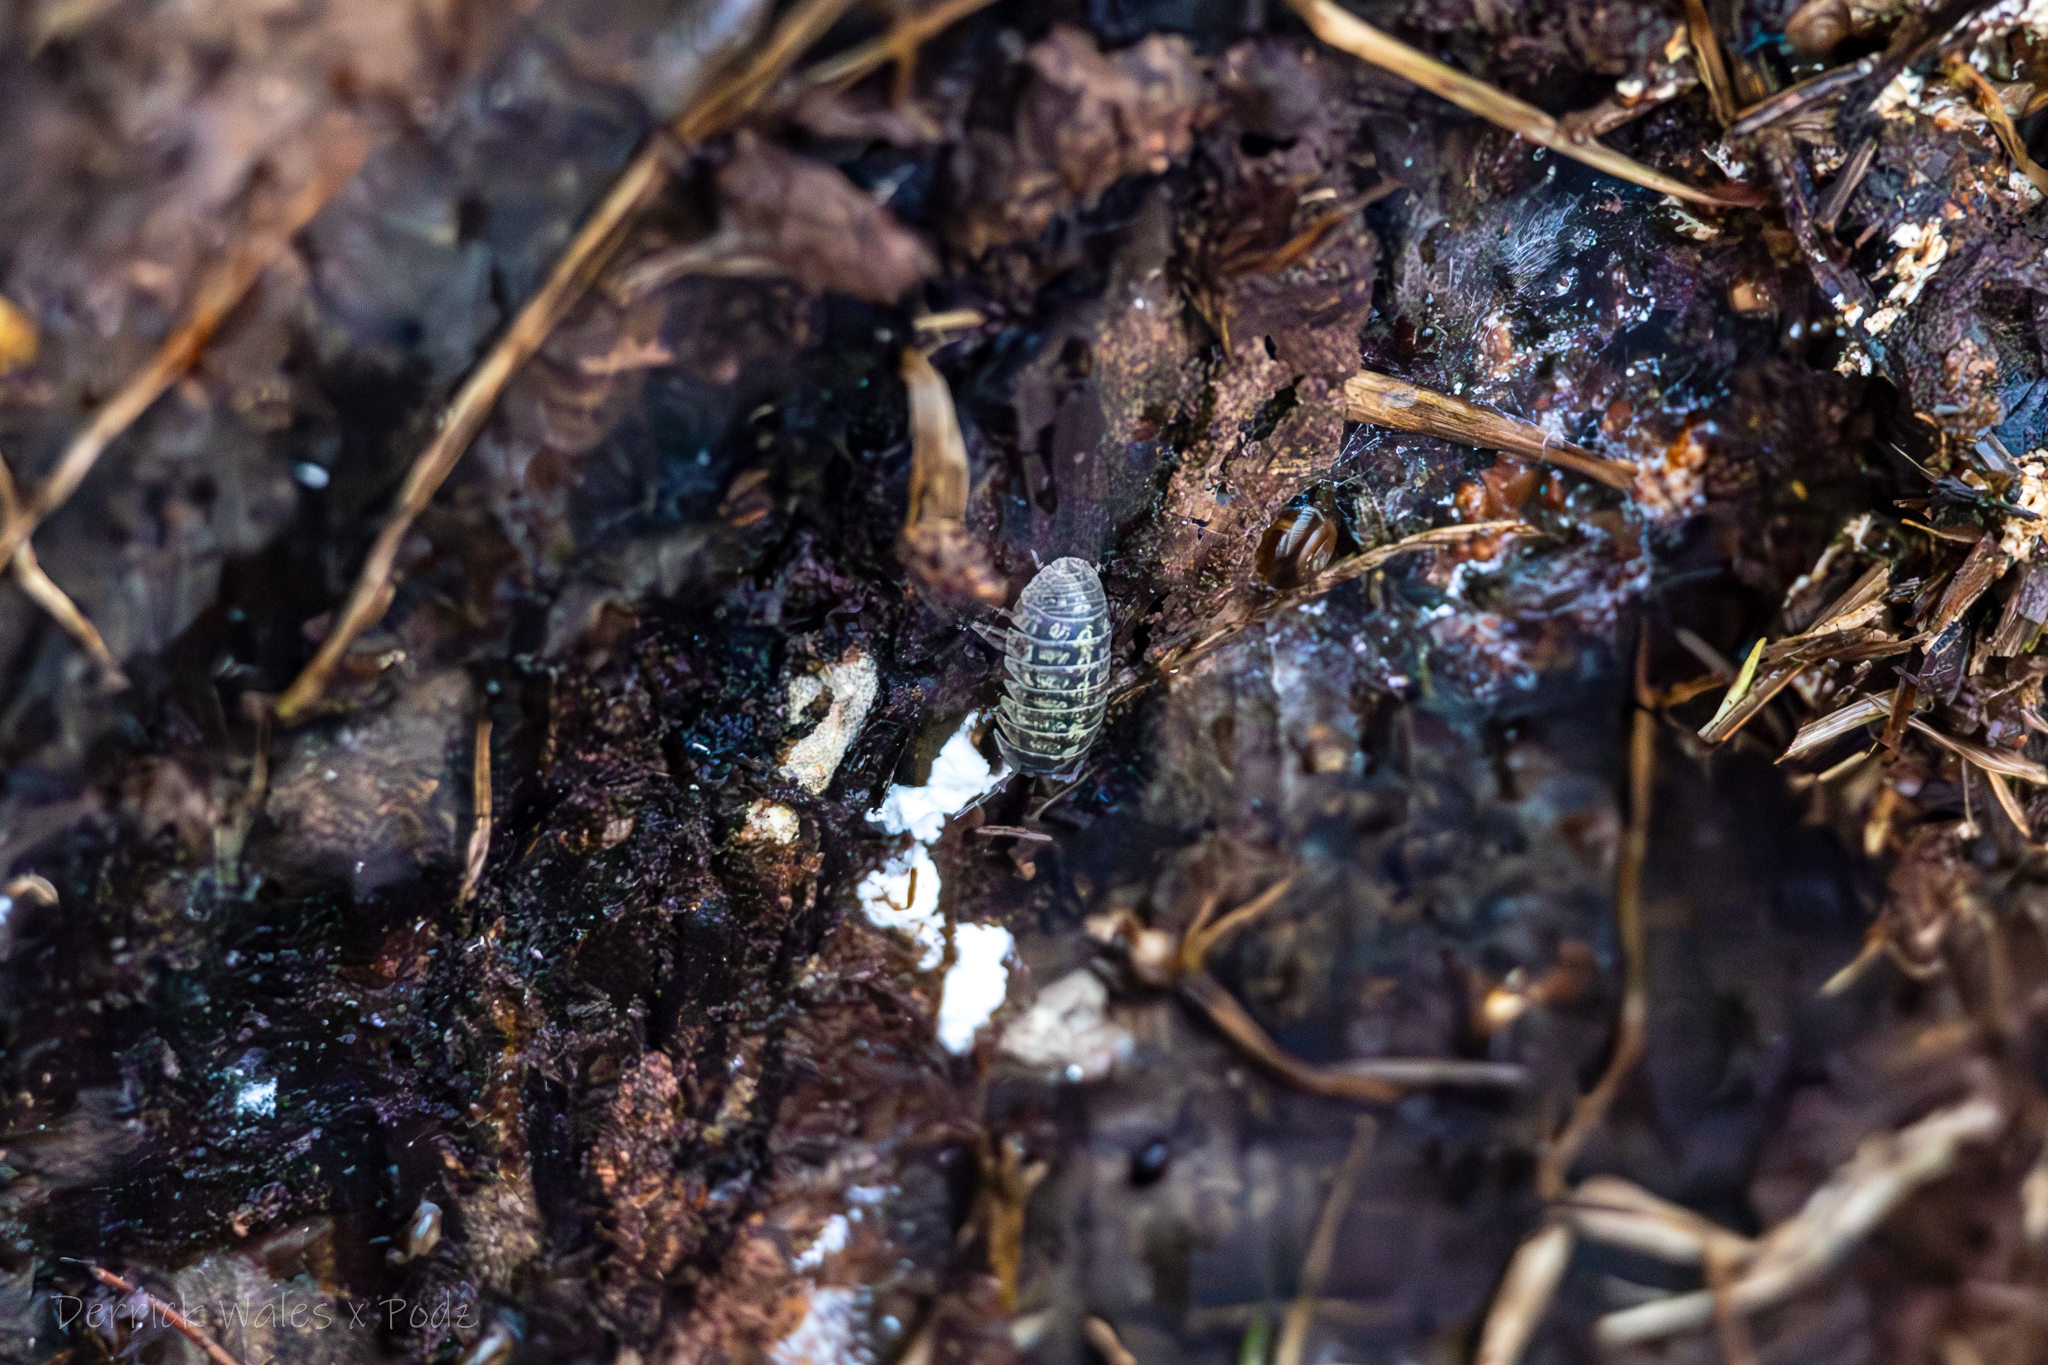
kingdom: Animalia
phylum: Arthropoda
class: Malacostraca
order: Isopoda
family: Armadillidiidae
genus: Armadillidium
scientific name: Armadillidium vulgare
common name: Common pill woodlouse
